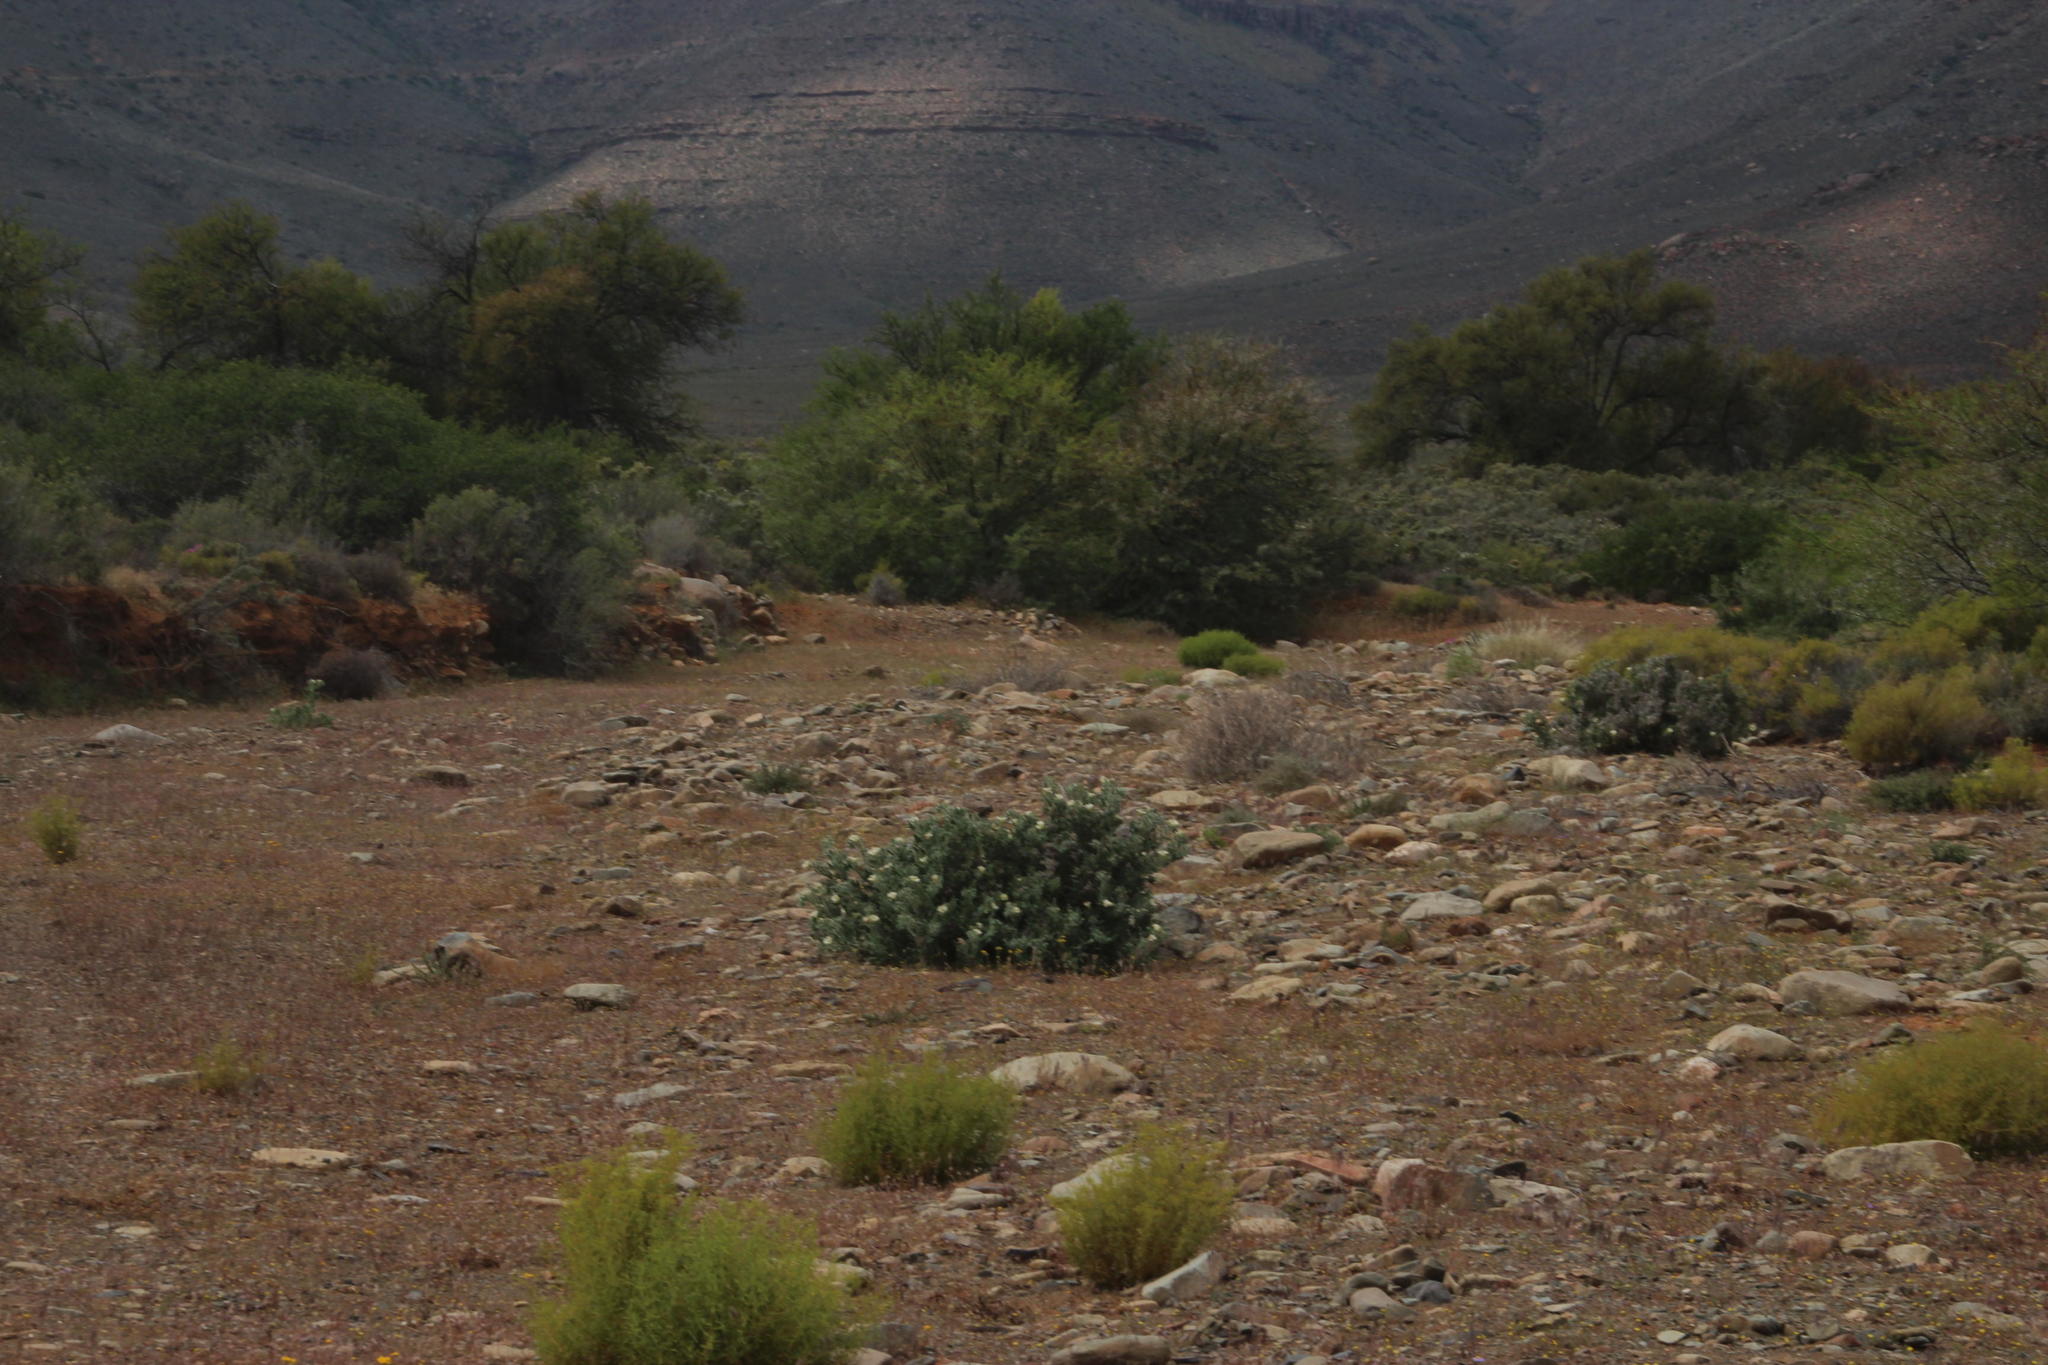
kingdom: Plantae
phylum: Tracheophyta
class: Magnoliopsida
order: Boraginales
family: Boraginaceae
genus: Codon
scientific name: Codon royenii
